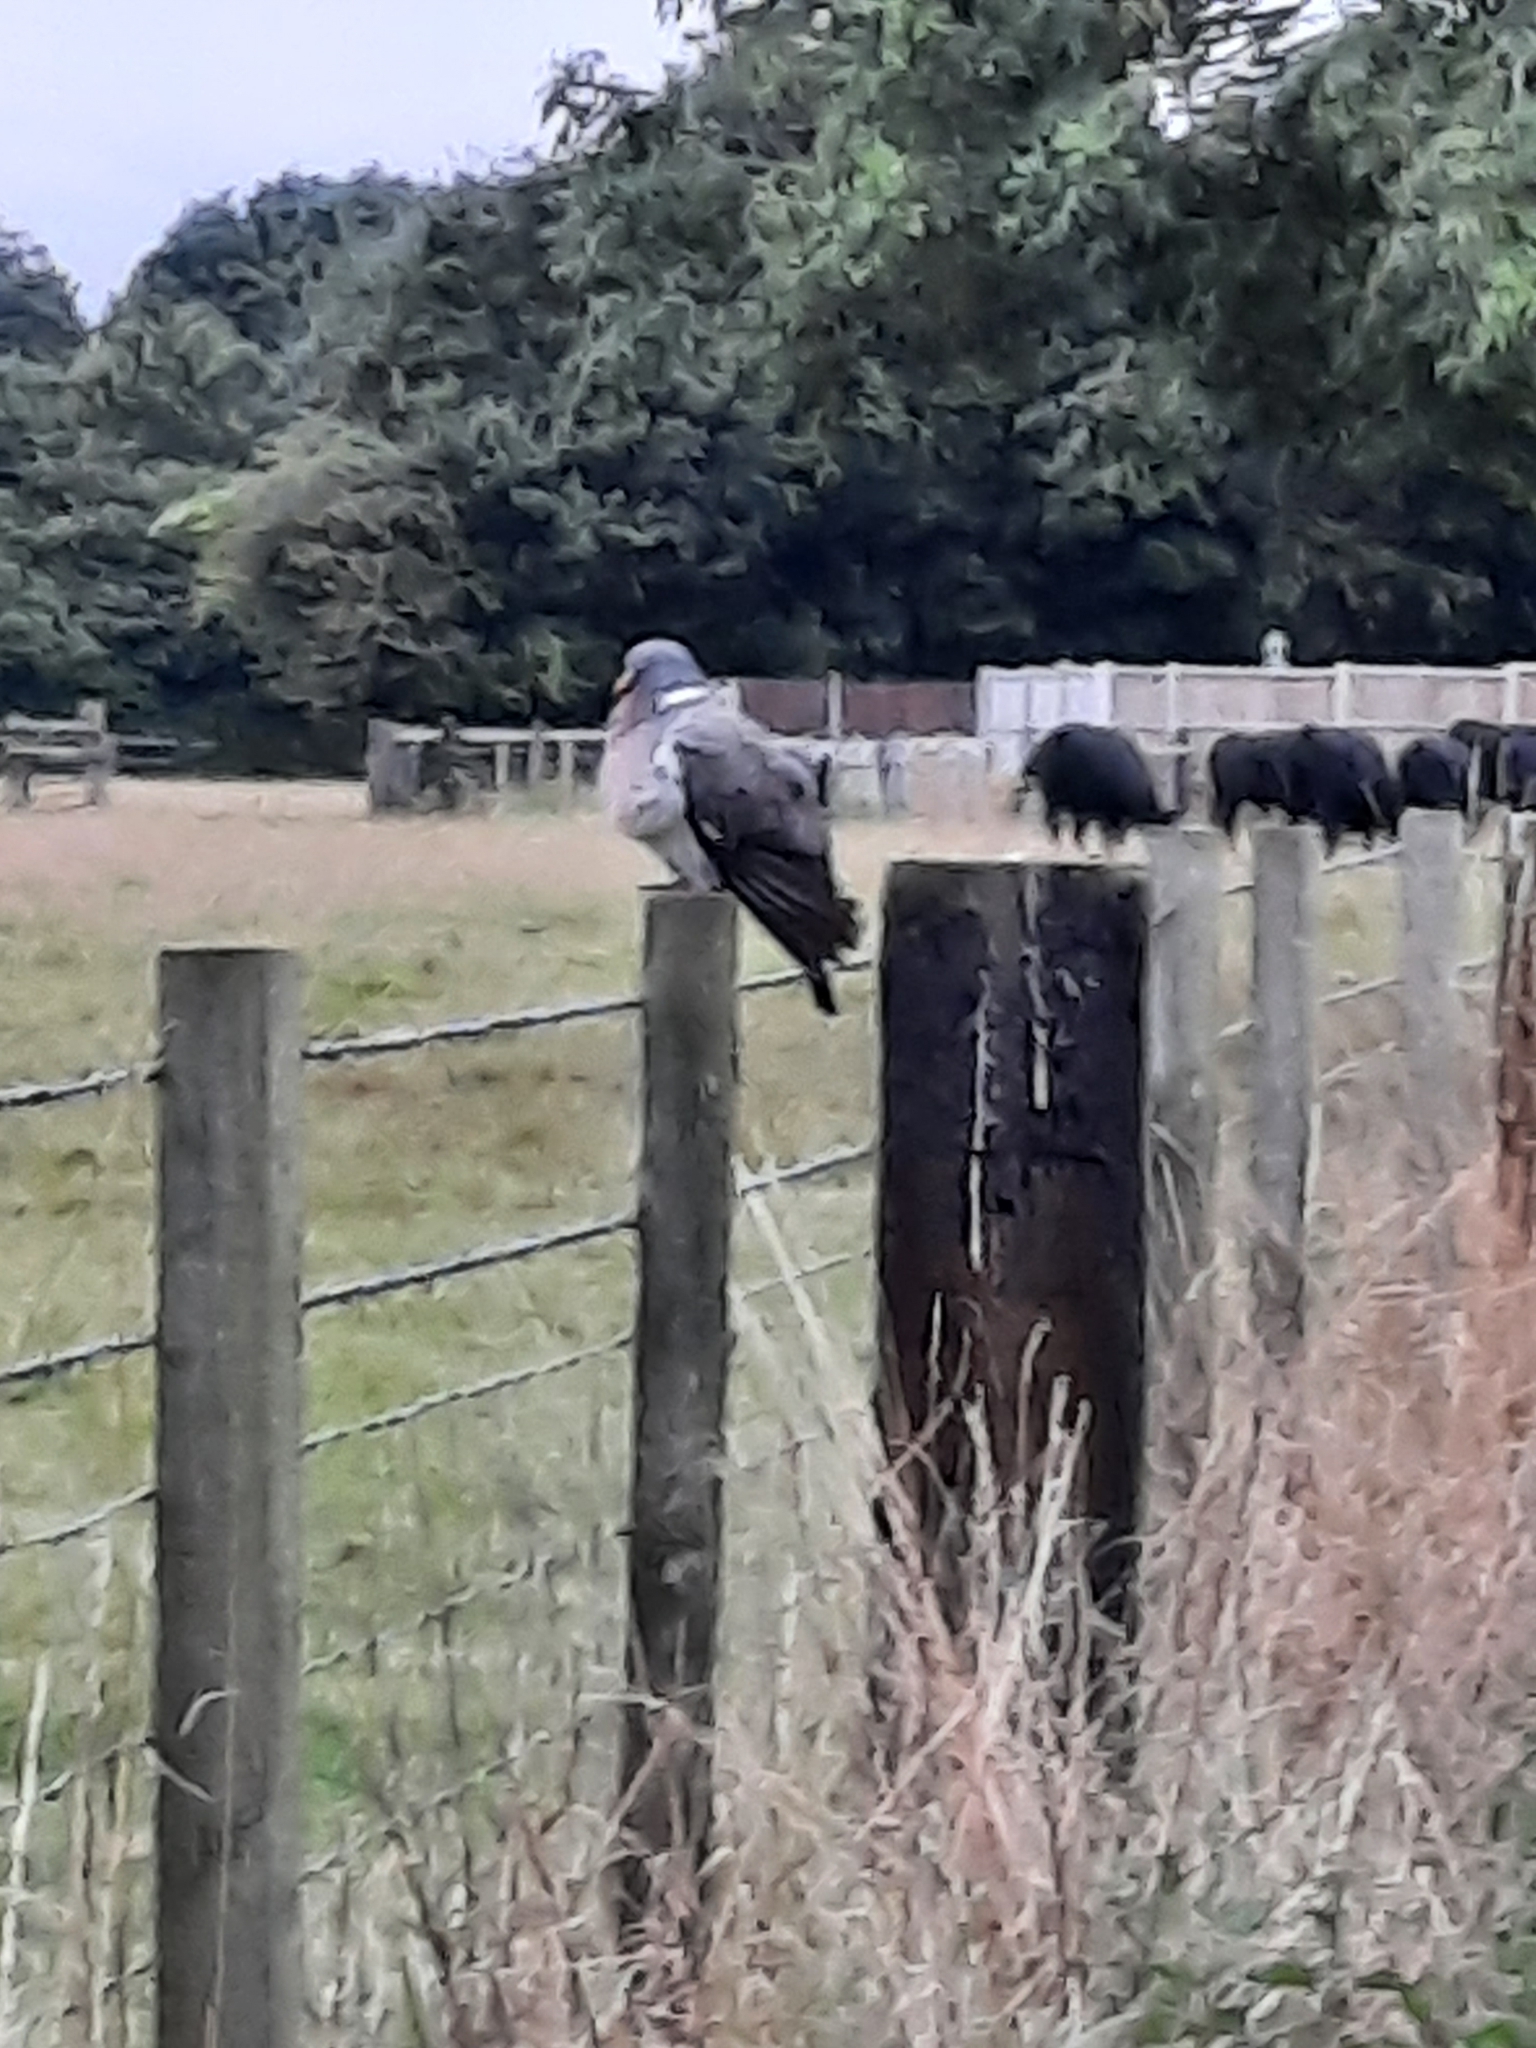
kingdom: Animalia
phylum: Chordata
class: Aves
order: Columbiformes
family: Columbidae
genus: Columba
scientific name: Columba palumbus
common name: Common wood pigeon
